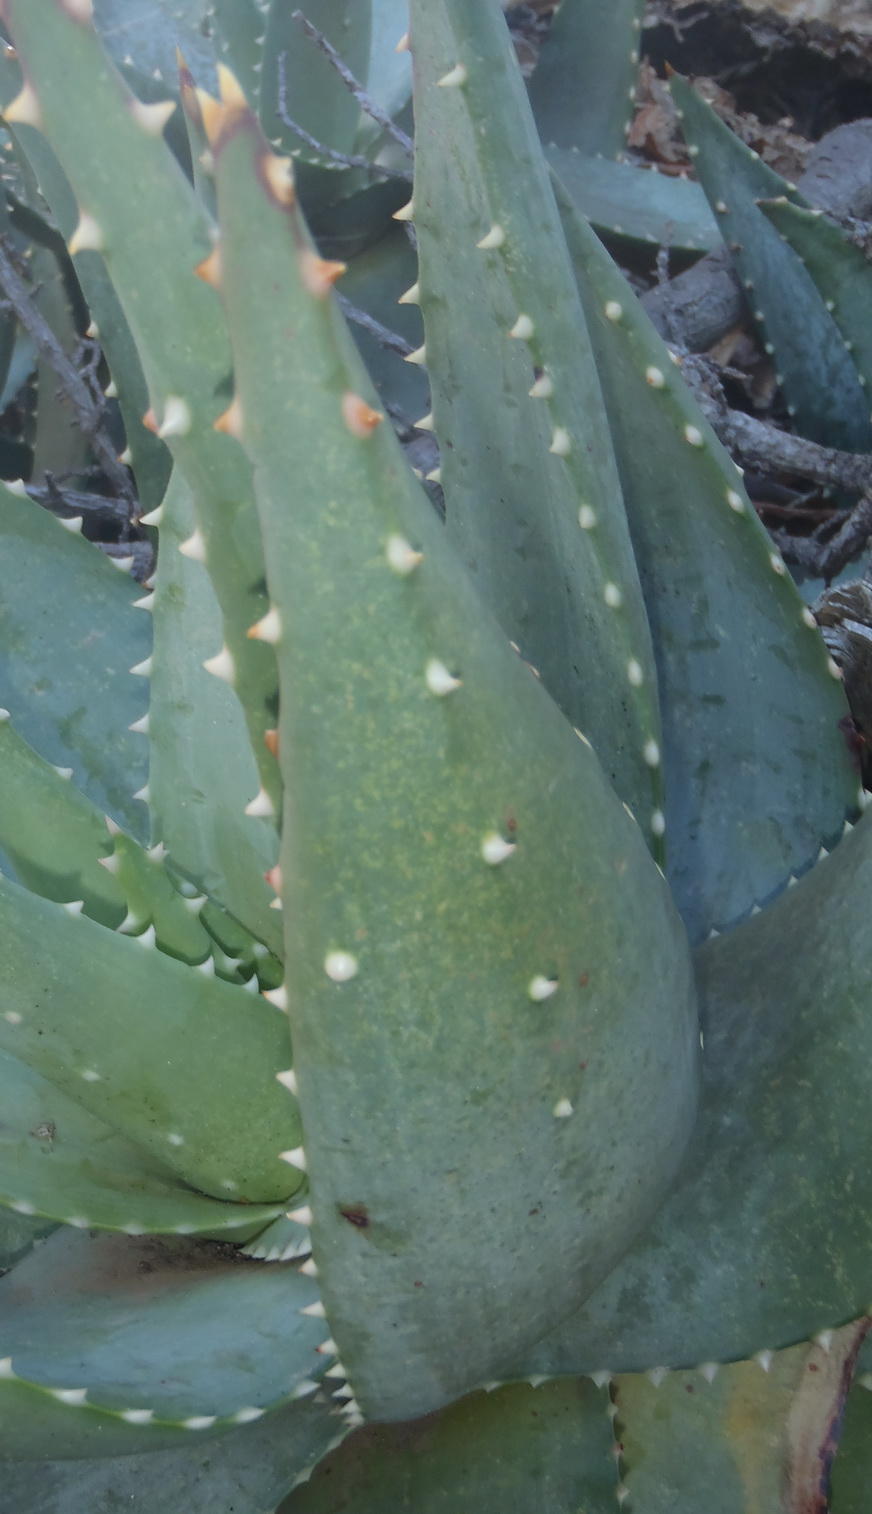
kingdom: Plantae
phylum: Tracheophyta
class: Liliopsida
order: Asparagales
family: Asphodelaceae
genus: Aloe
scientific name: Aloe perfoliata
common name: Mitra aloe
